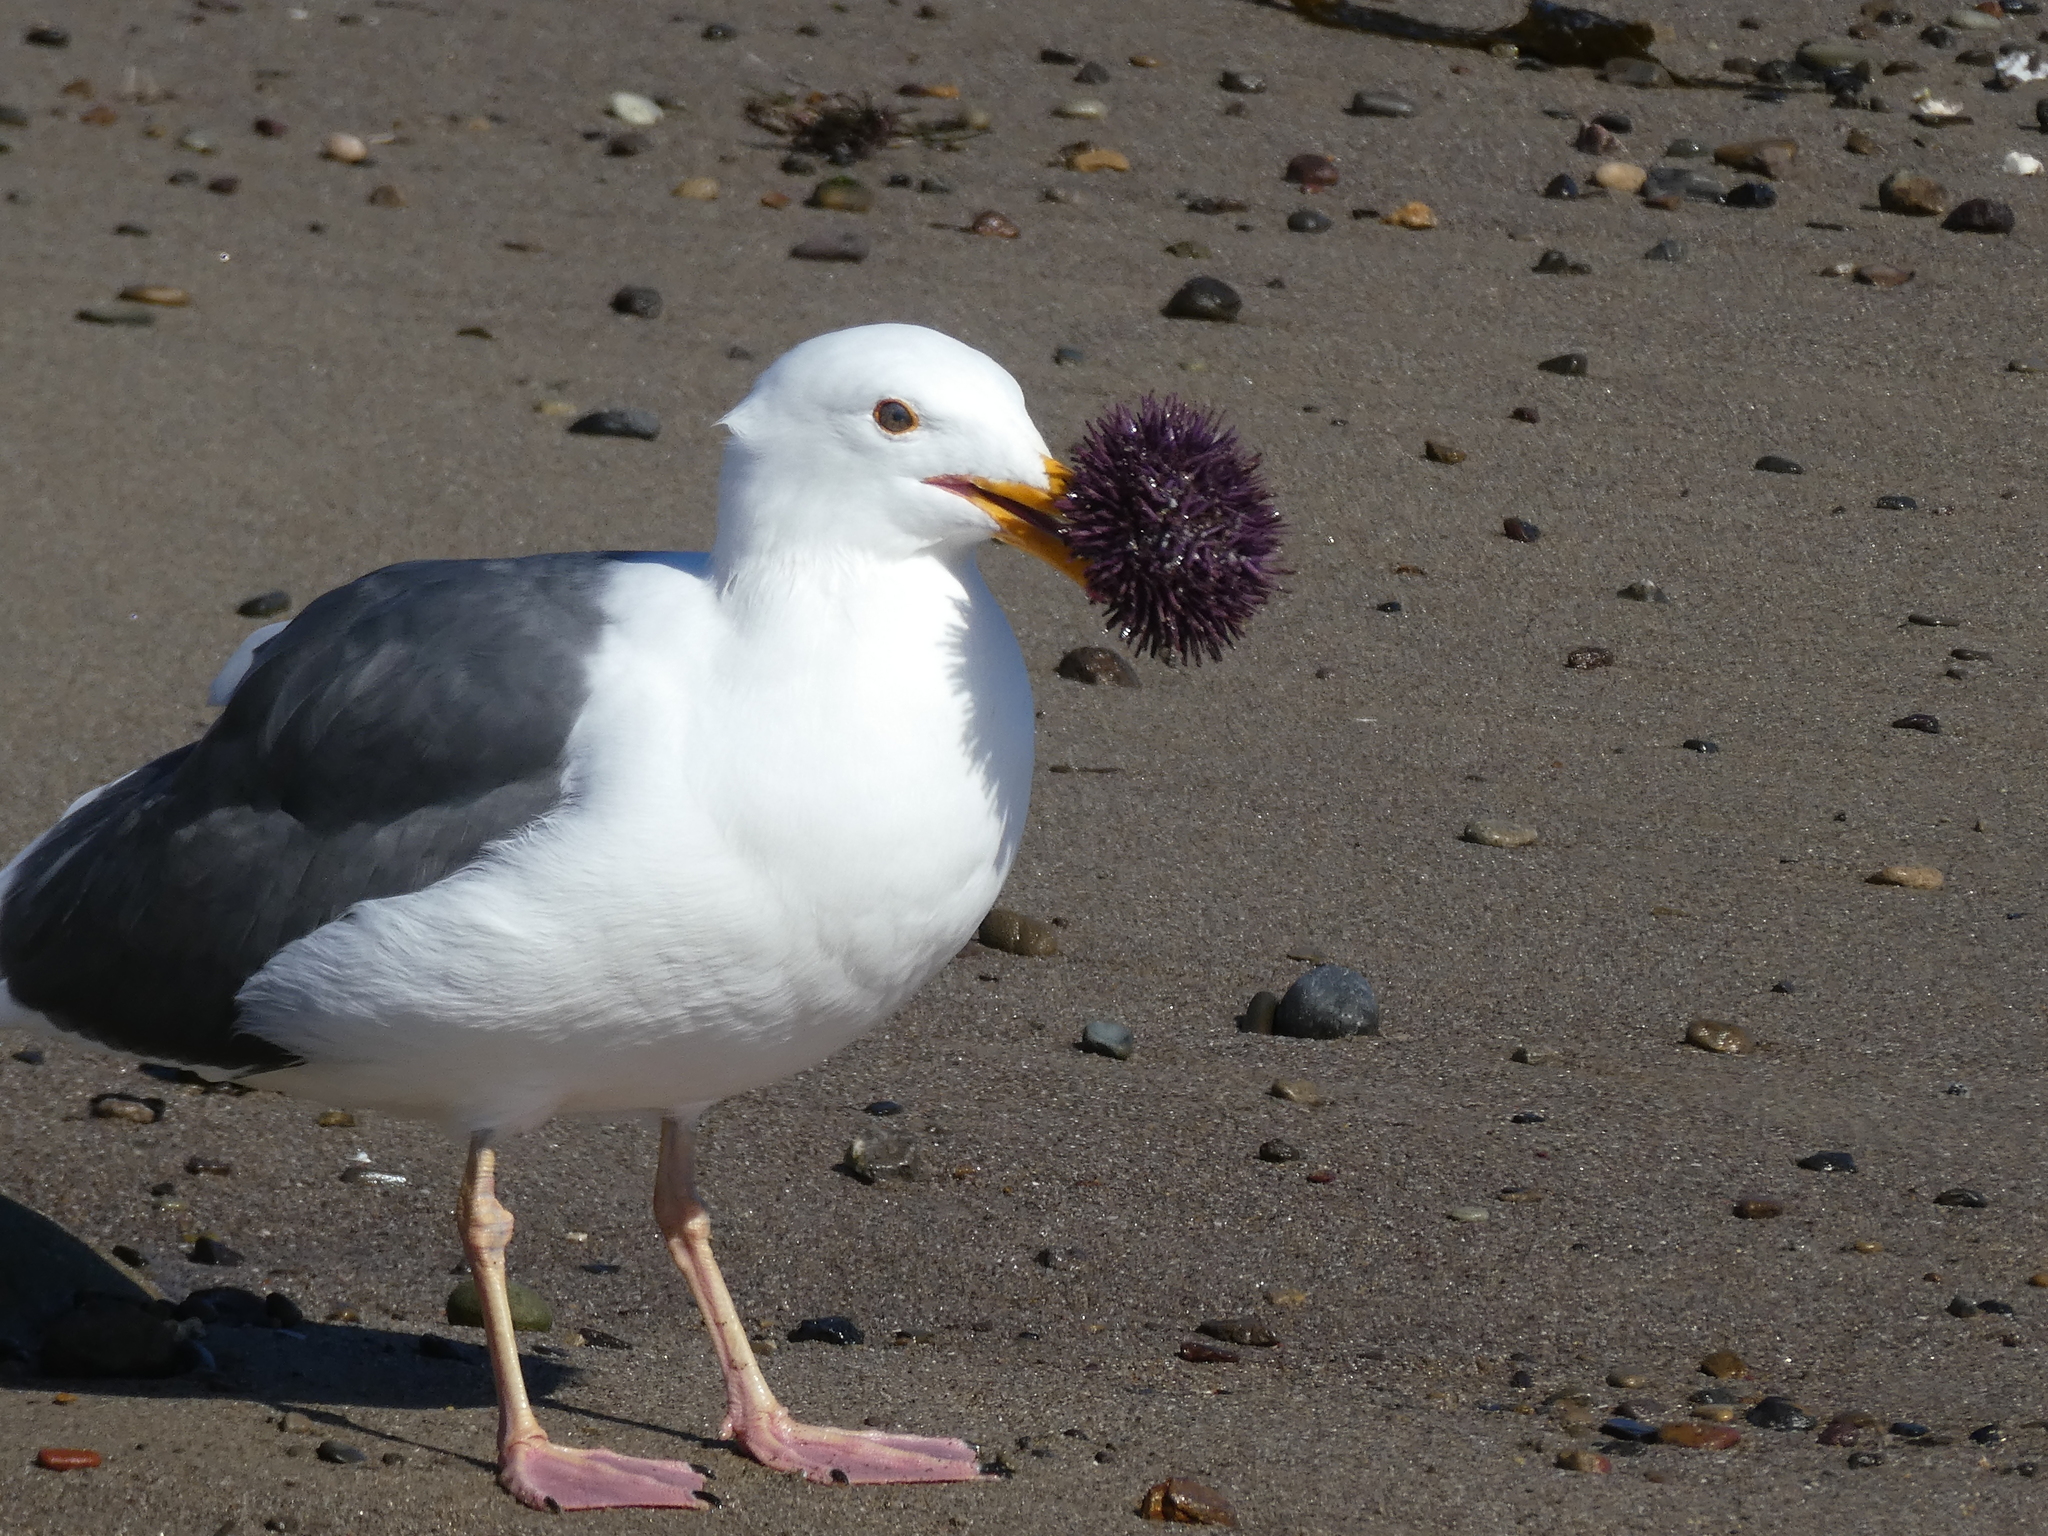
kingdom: Animalia
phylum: Echinodermata
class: Echinoidea
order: Camarodonta
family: Strongylocentrotidae
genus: Strongylocentrotus
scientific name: Strongylocentrotus purpuratus
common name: Purple sea urchin
